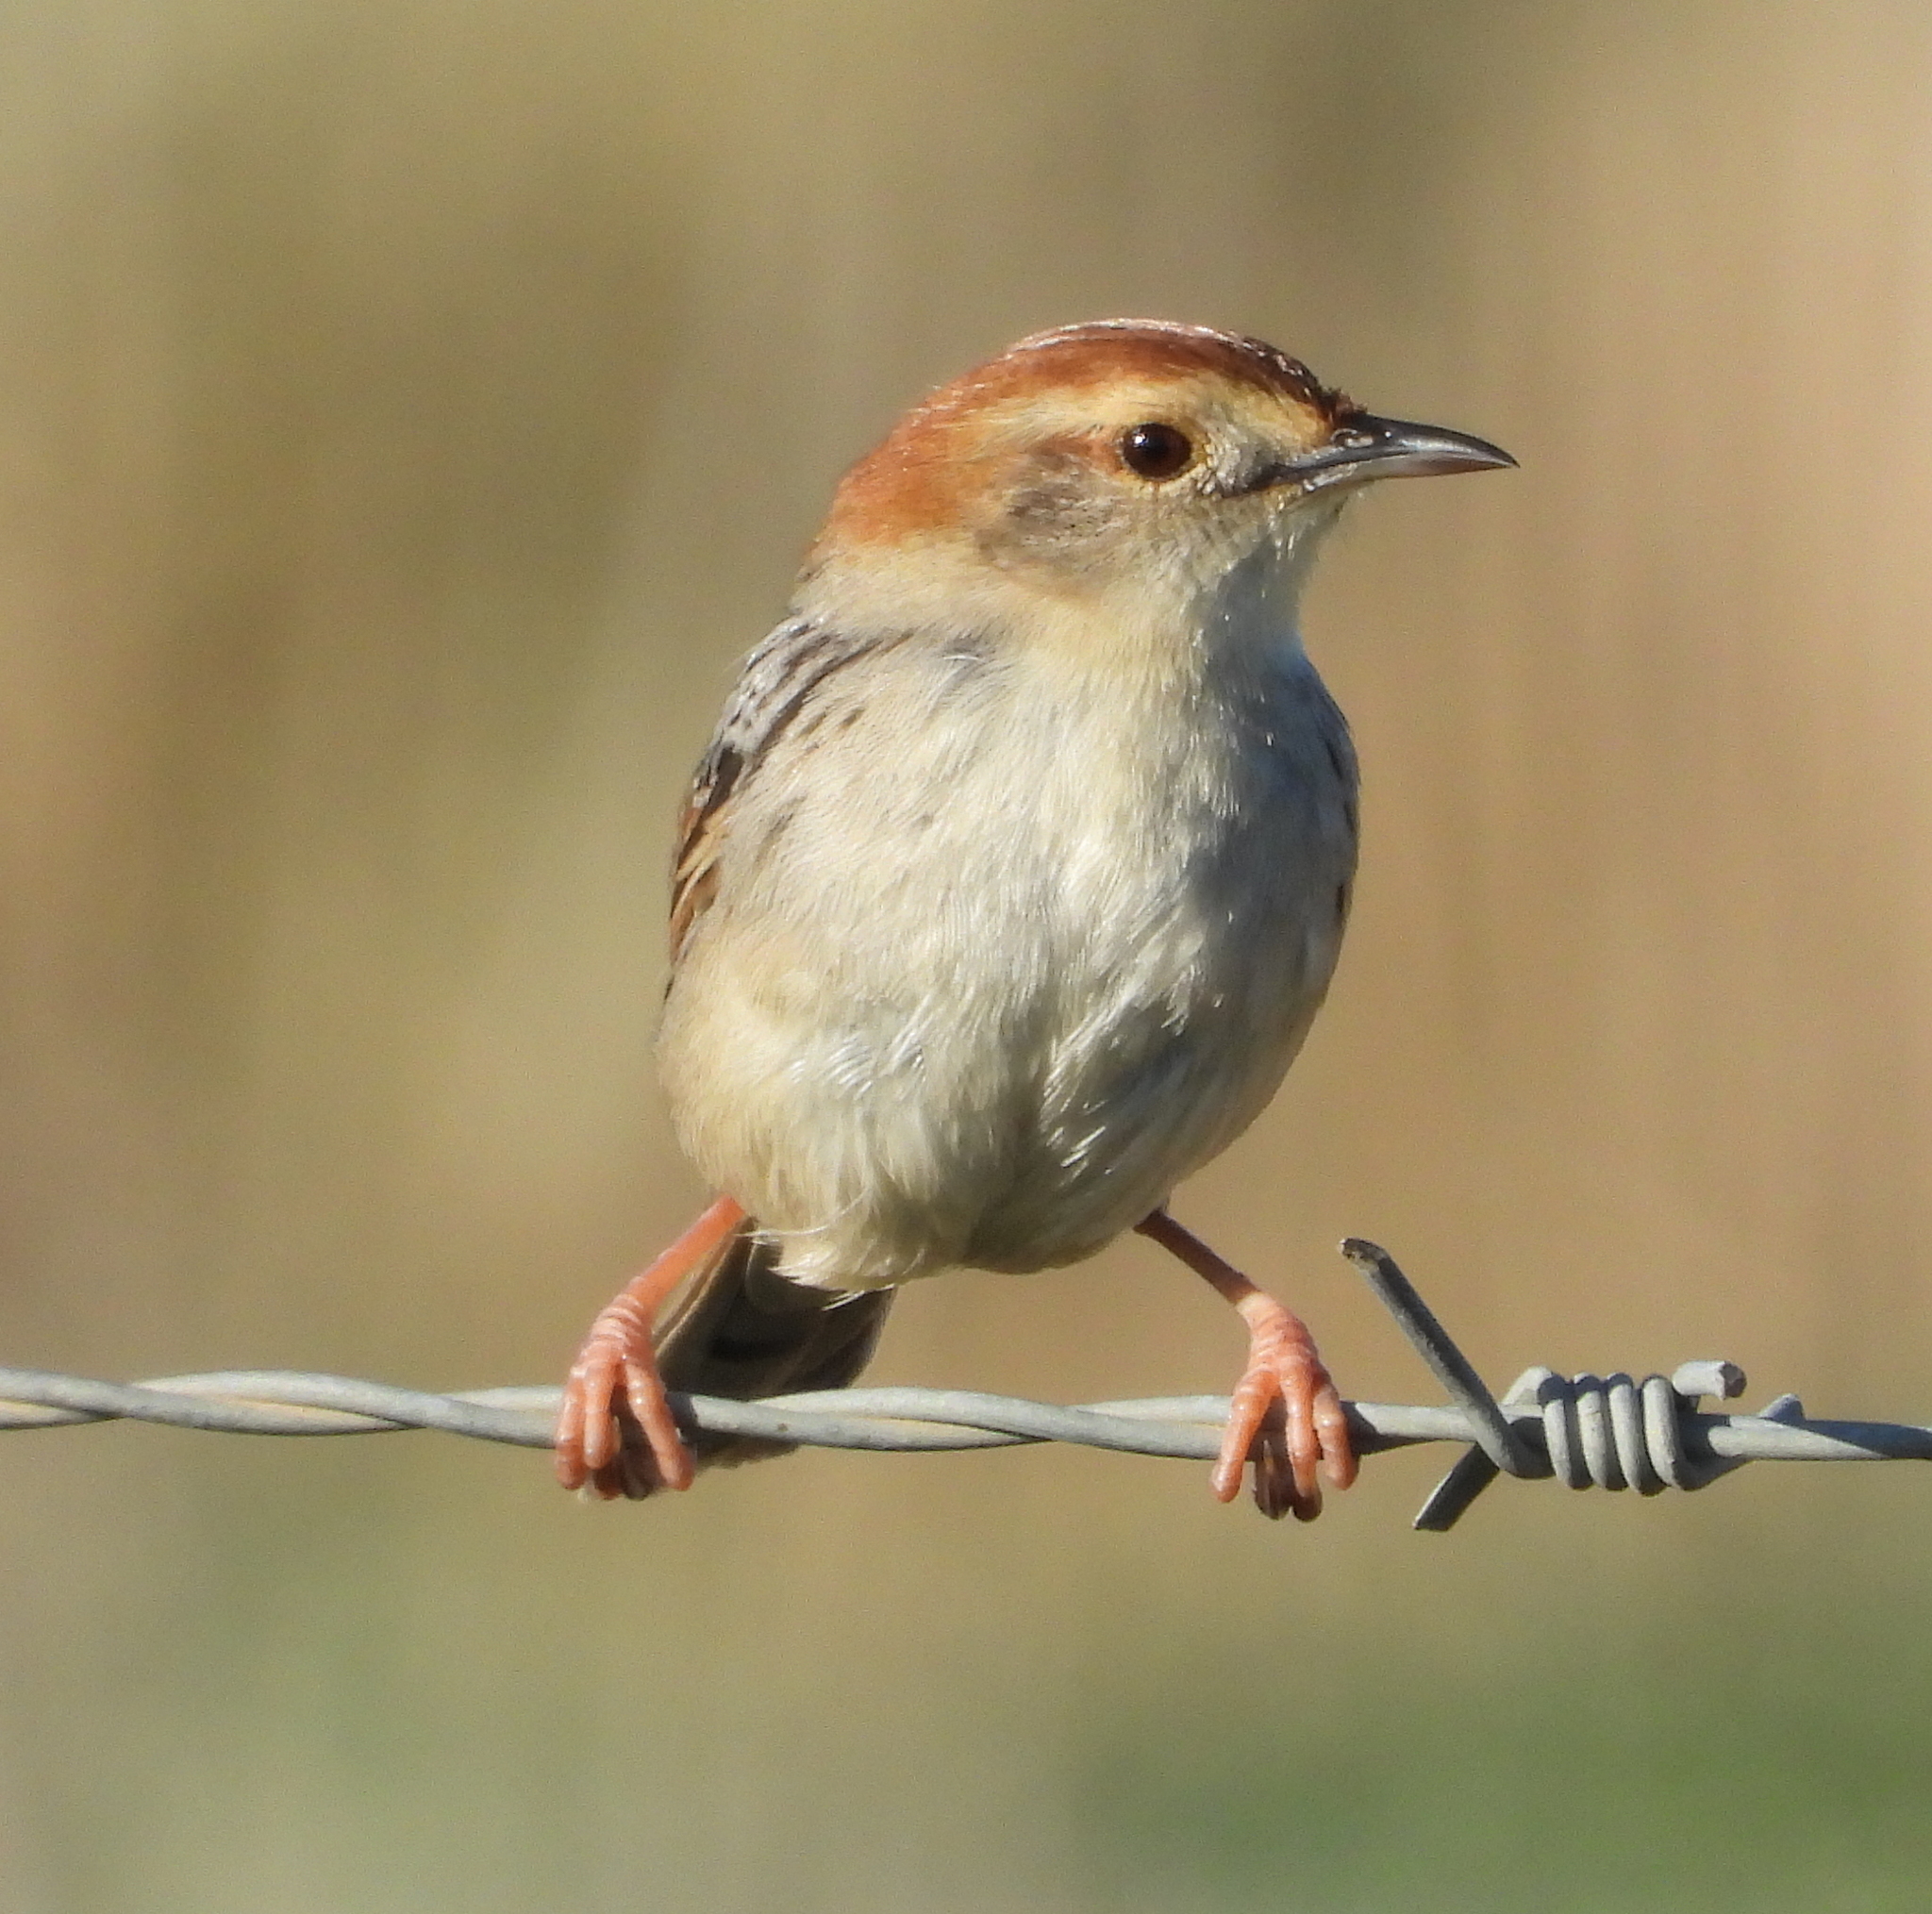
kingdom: Animalia
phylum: Chordata
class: Aves
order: Passeriformes
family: Cisticolidae
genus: Cisticola
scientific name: Cisticola tinniens
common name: Levaillant's cisticola
